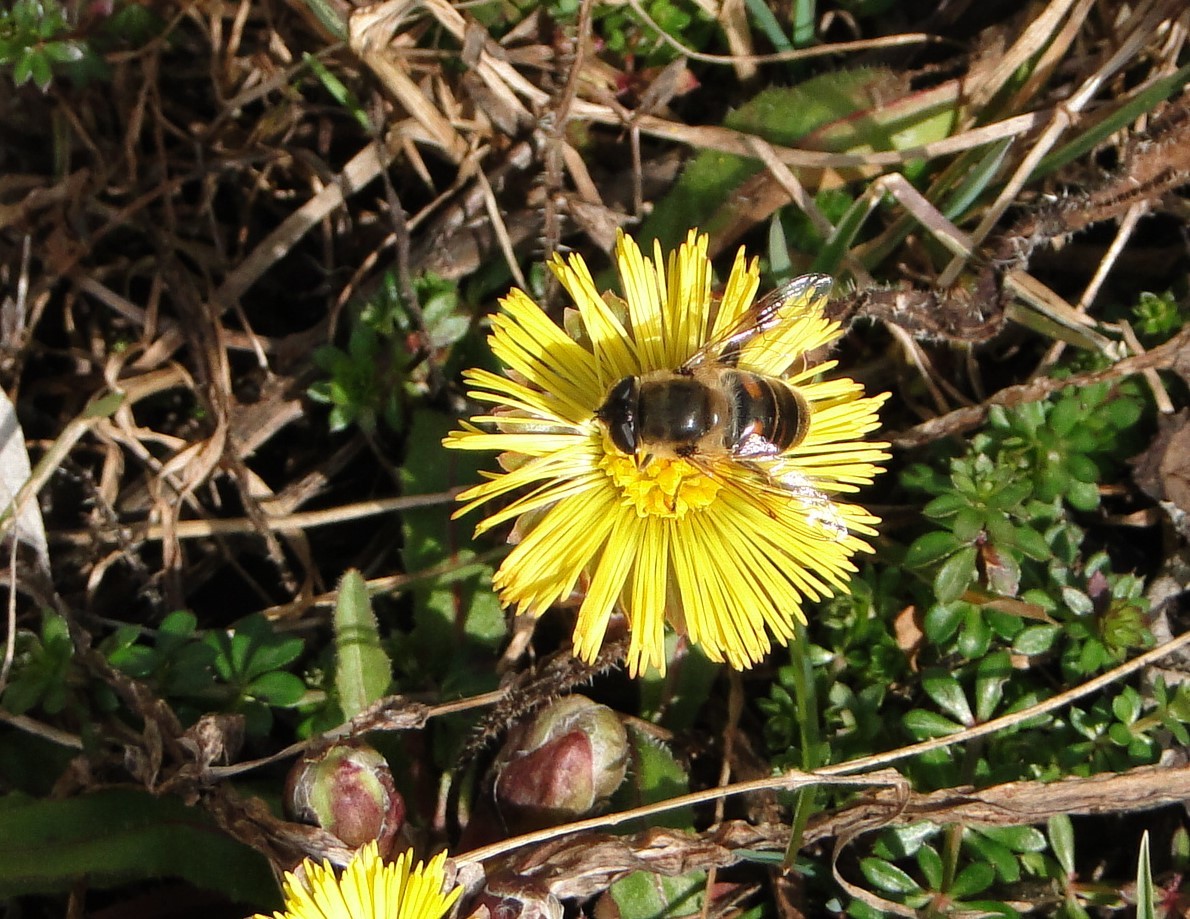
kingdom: Animalia
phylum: Arthropoda
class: Insecta
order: Diptera
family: Syrphidae
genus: Eristalis
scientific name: Eristalis tenax
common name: Drone fly
